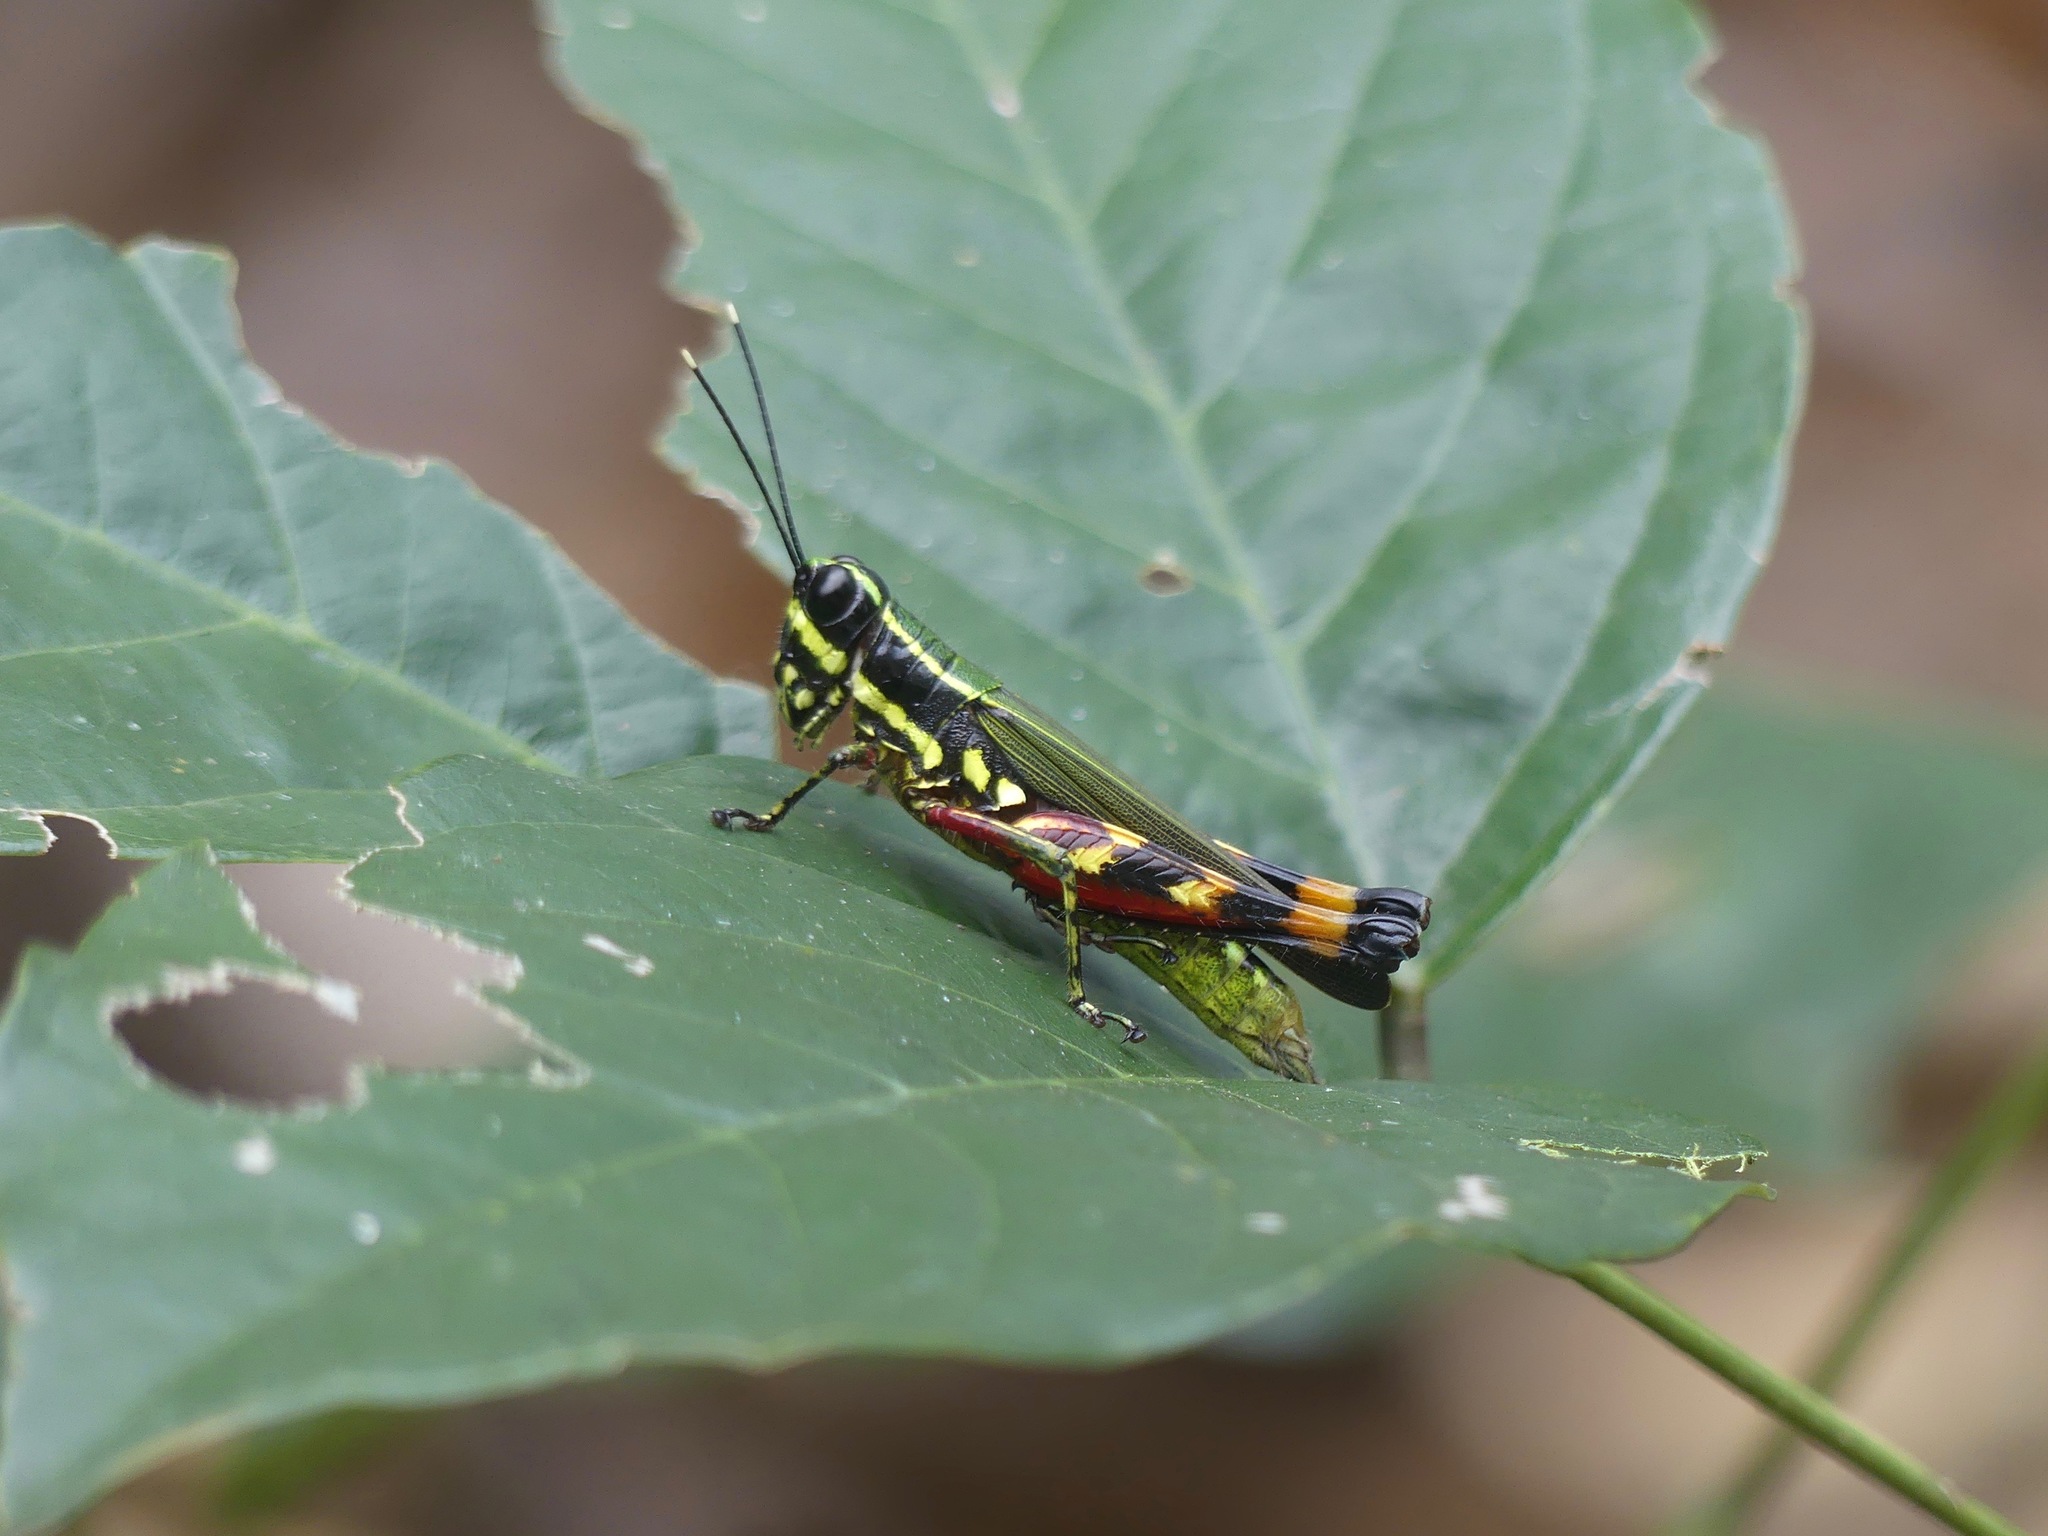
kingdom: Animalia
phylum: Arthropoda
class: Insecta
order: Orthoptera
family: Acrididae
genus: Tetrataenia
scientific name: Tetrataenia surinama
